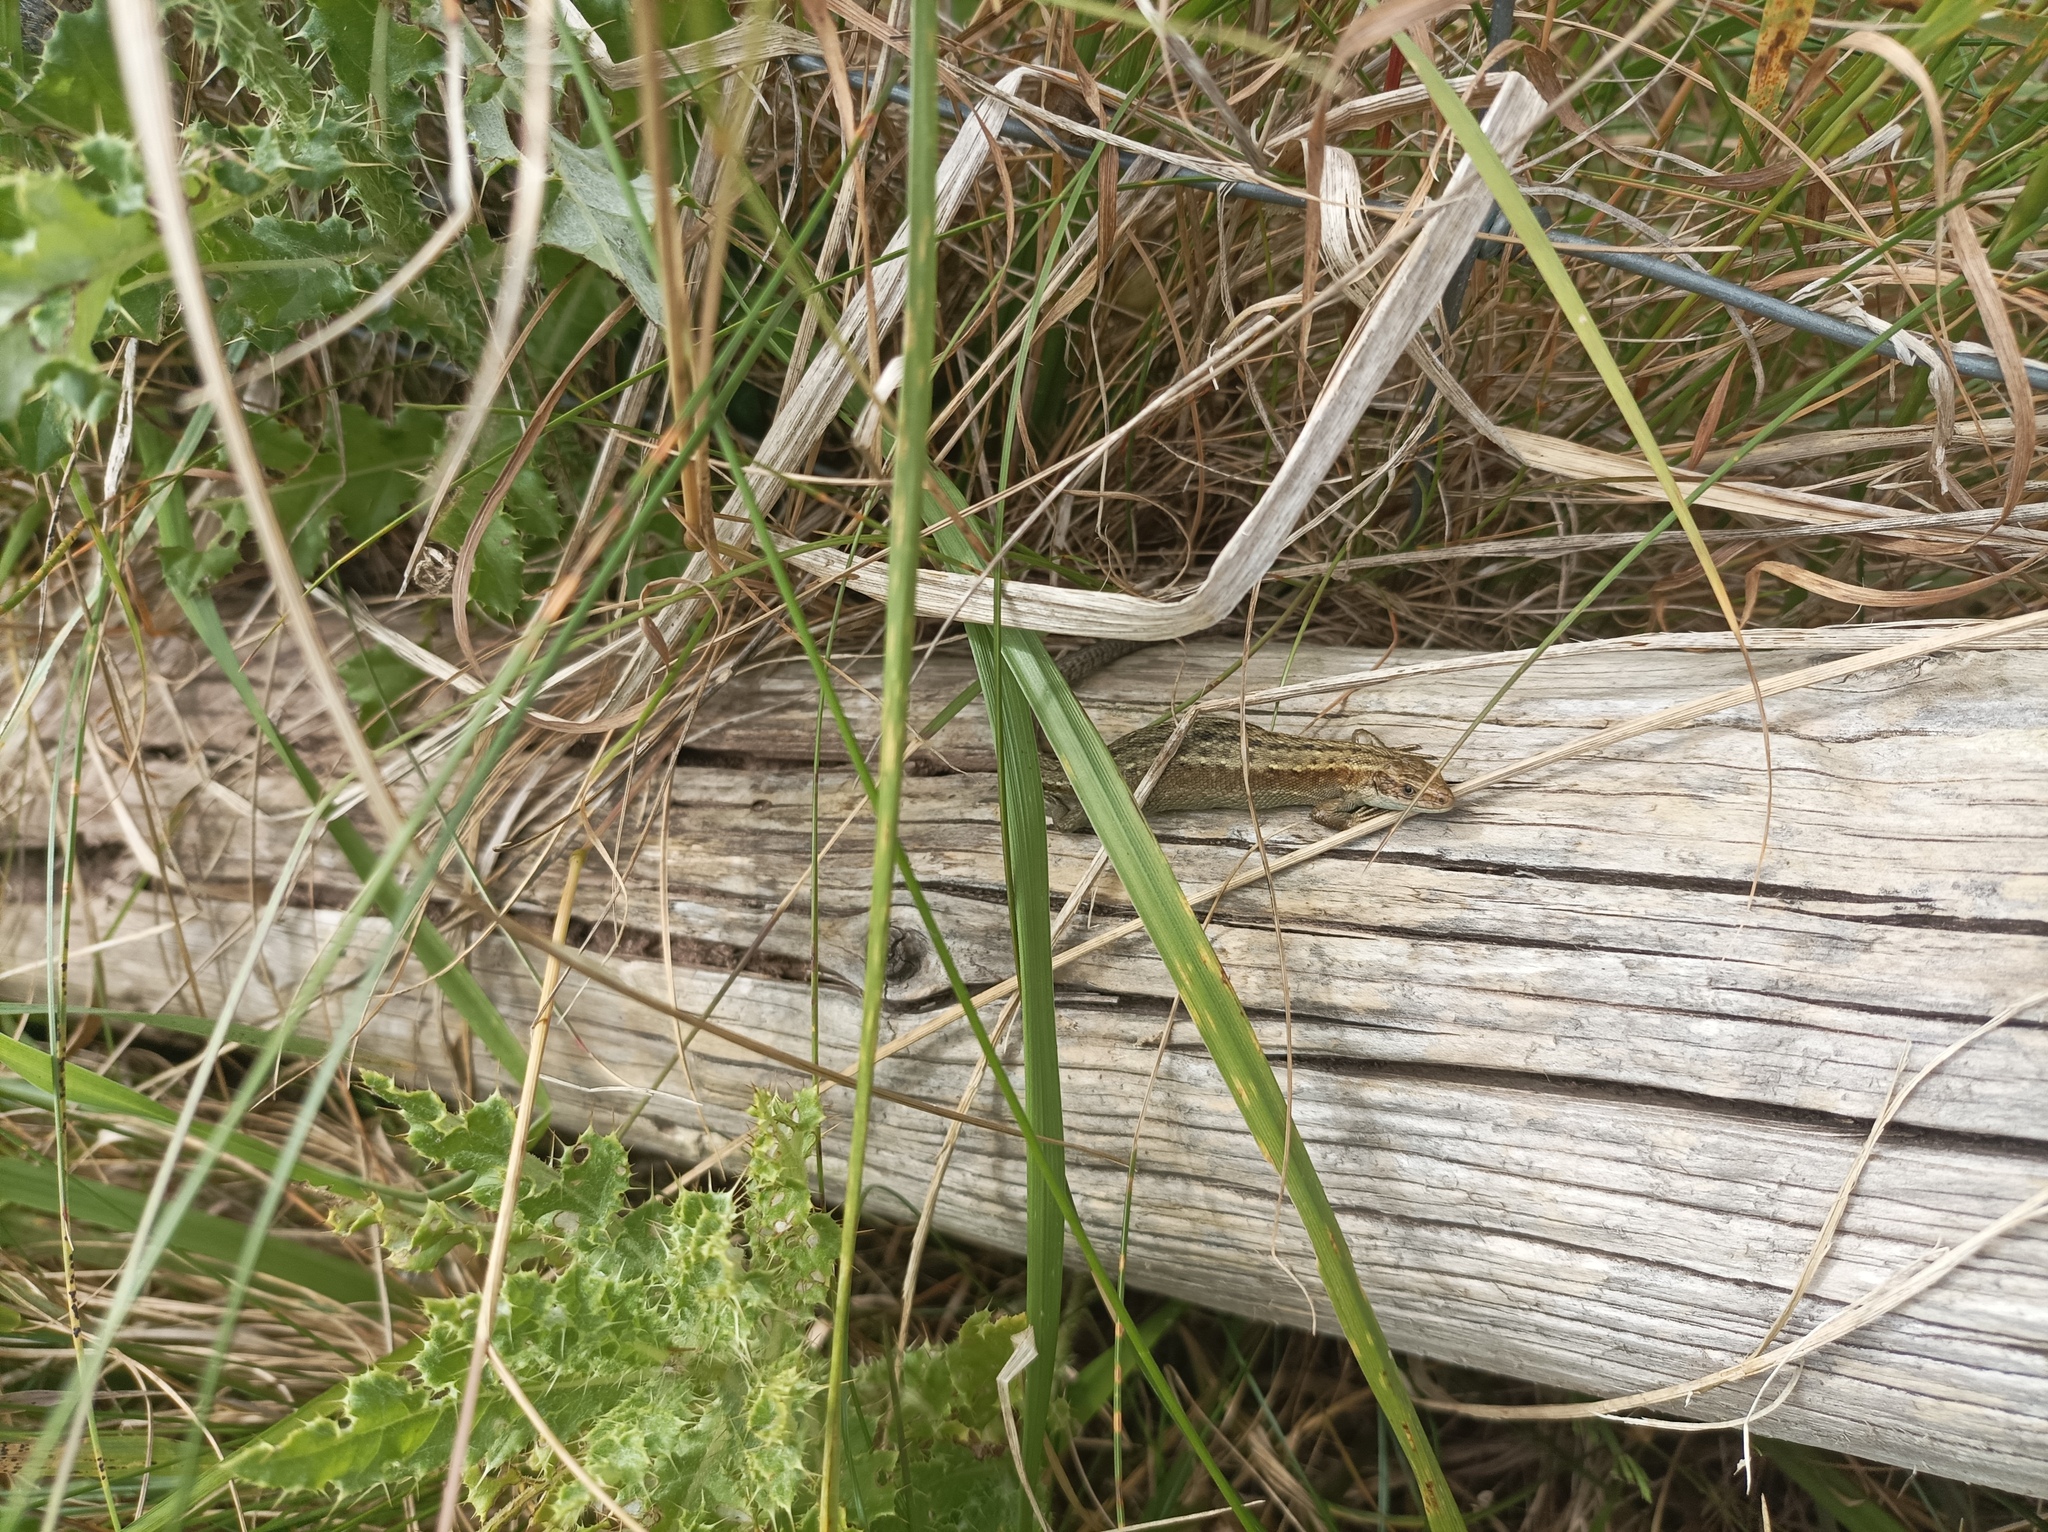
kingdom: Animalia
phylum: Chordata
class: Squamata
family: Lacertidae
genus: Zootoca
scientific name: Zootoca vivipara
